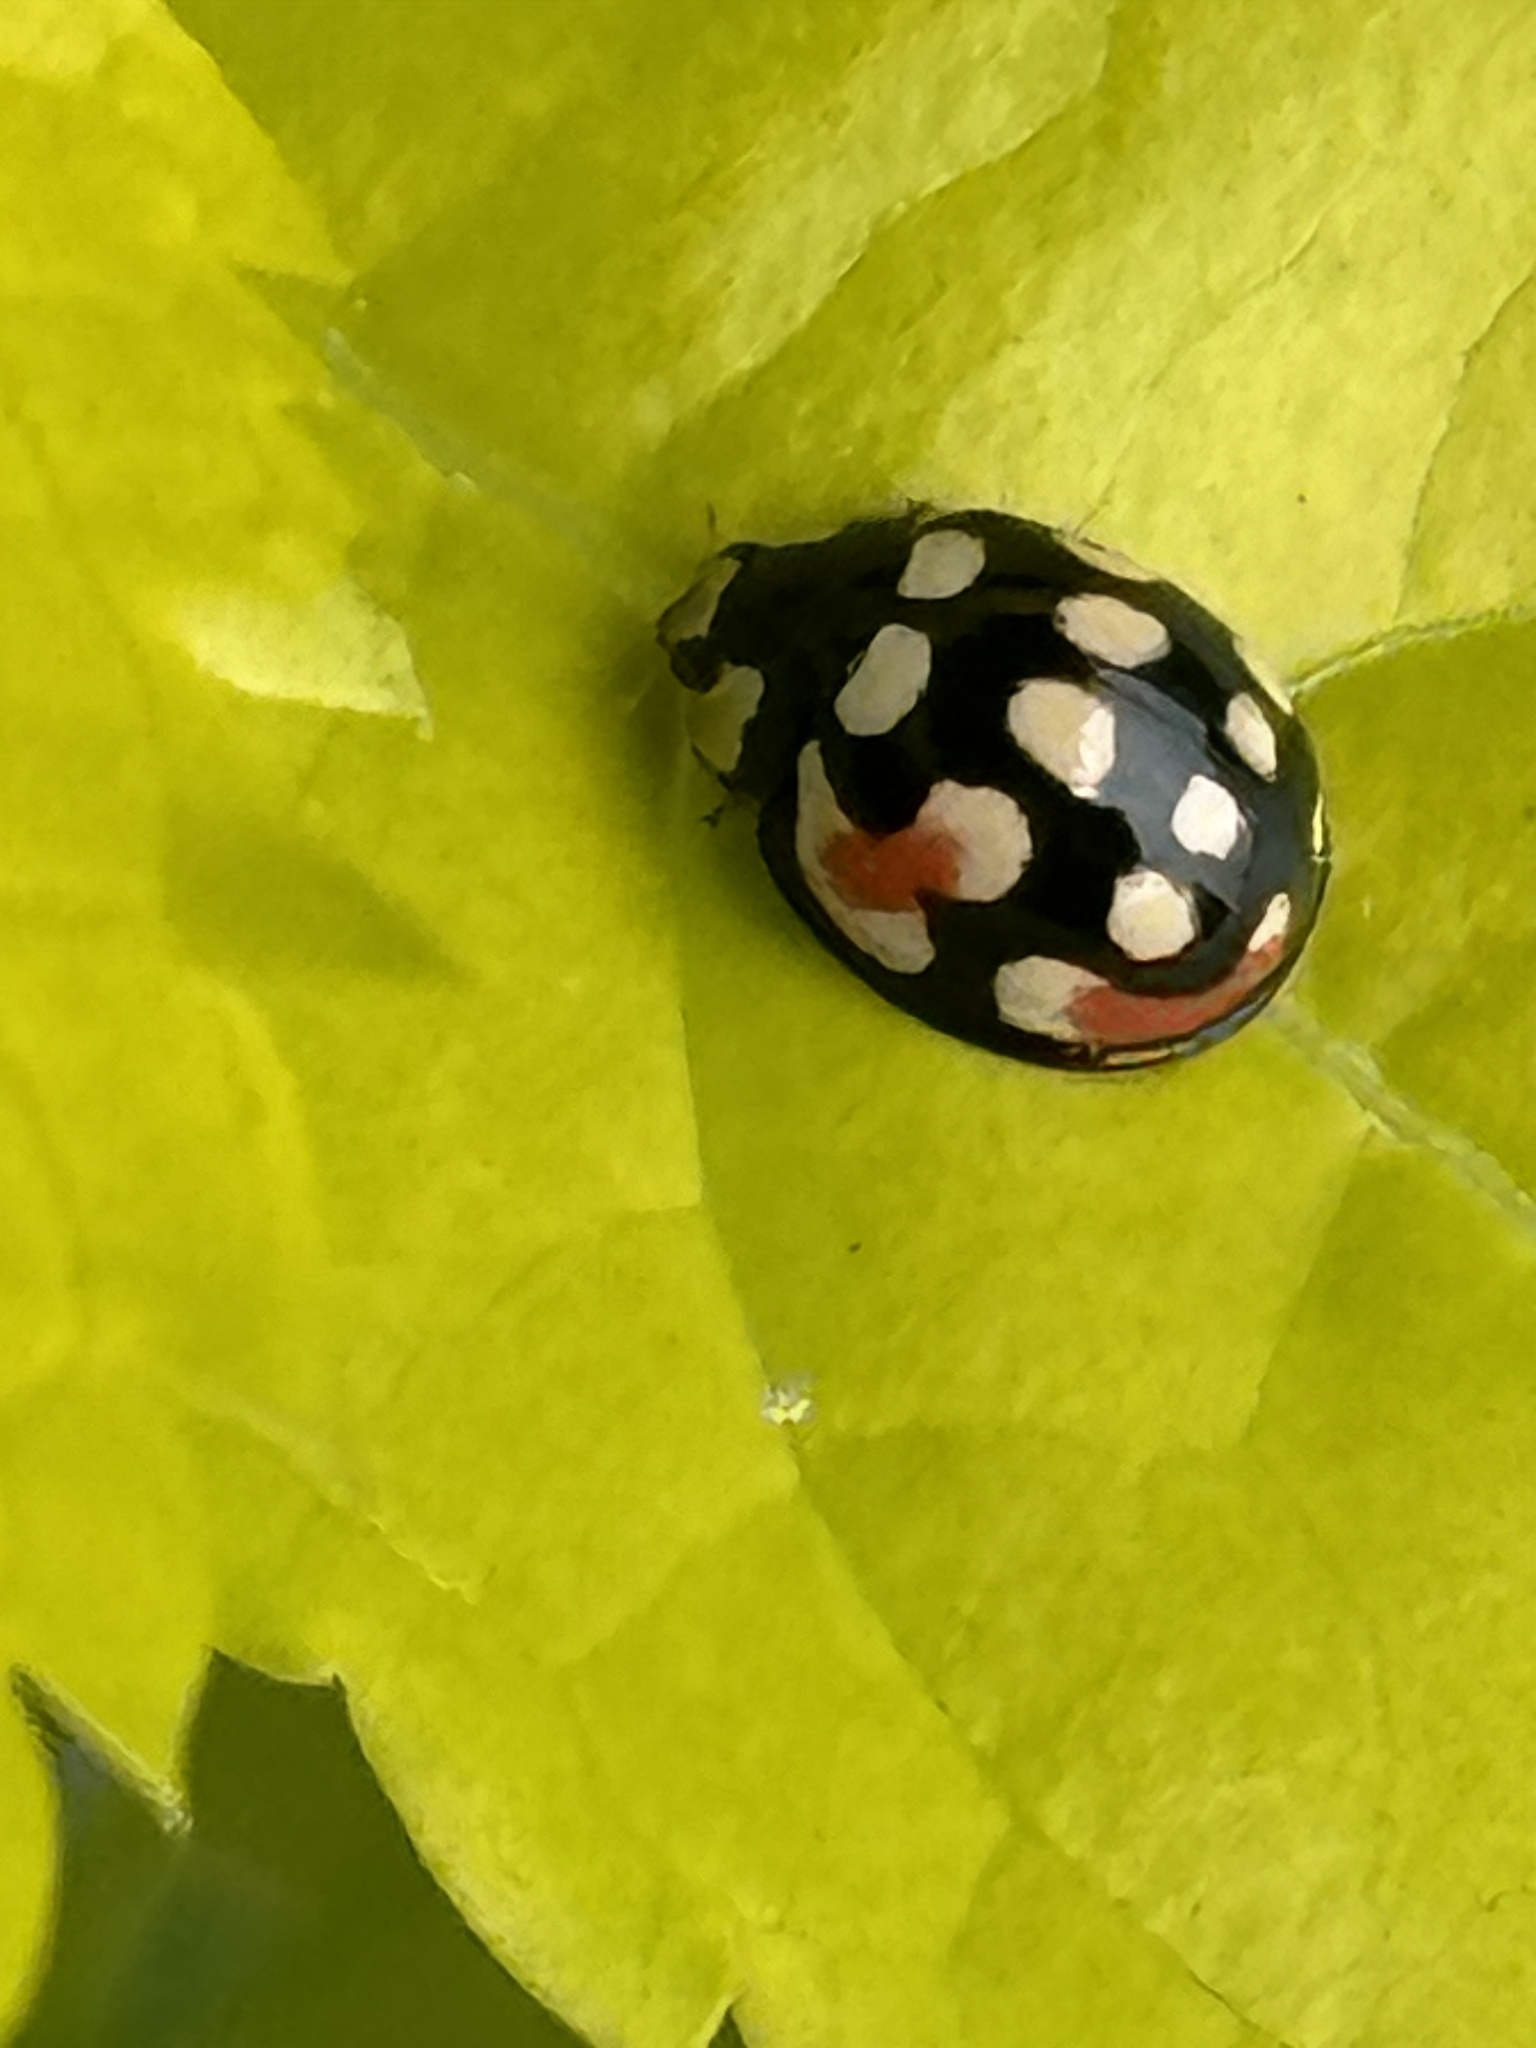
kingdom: Animalia
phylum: Arthropoda
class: Insecta
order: Coleoptera
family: Coccinellidae
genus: Cheilomenes
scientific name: Cheilomenes sulphurea
